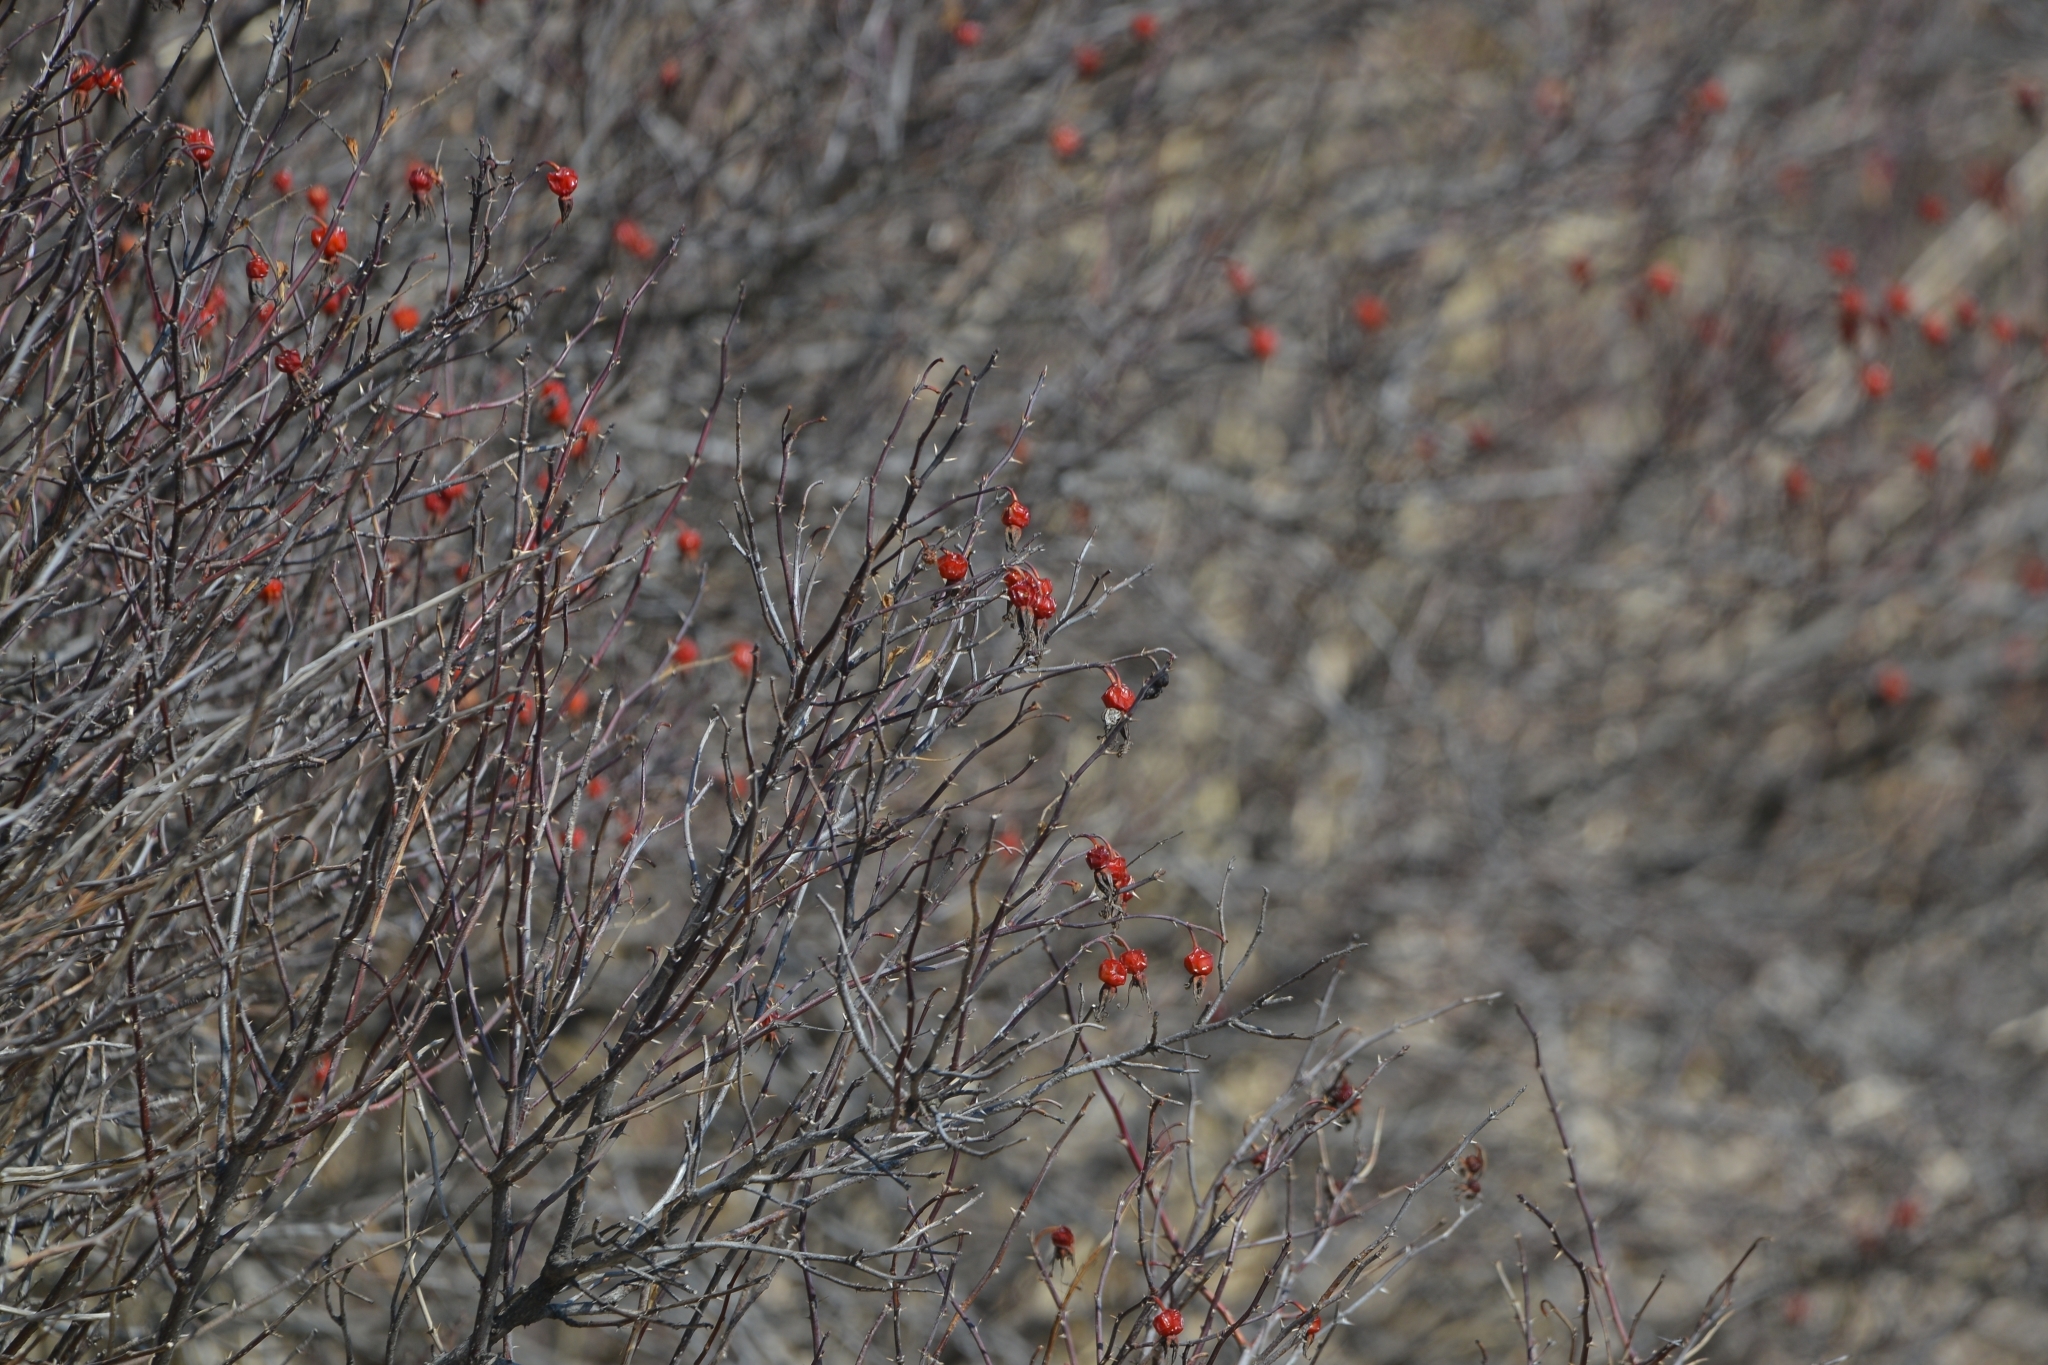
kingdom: Plantae
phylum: Tracheophyta
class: Magnoliopsida
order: Rosales
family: Rosaceae
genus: Rosa
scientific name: Rosa davurica
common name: Amur rose
